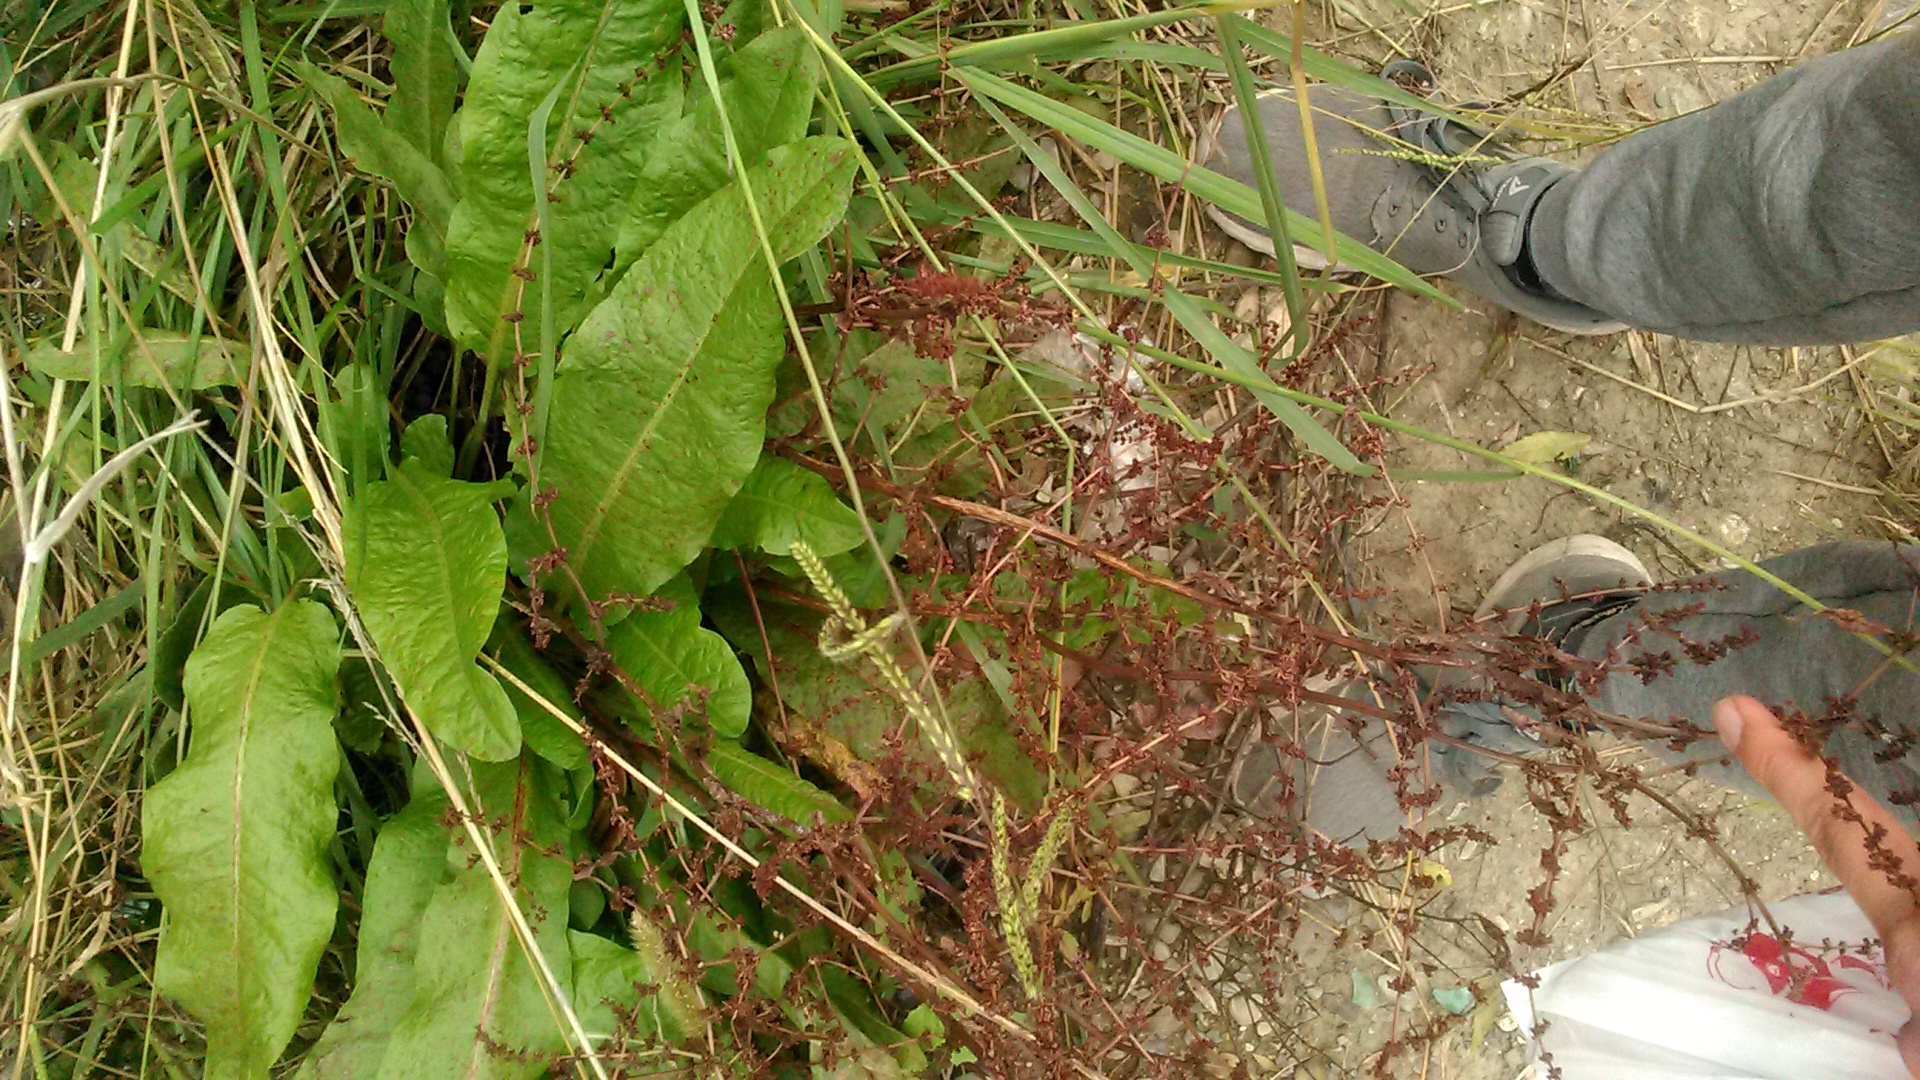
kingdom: Plantae
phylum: Tracheophyta
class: Magnoliopsida
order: Caryophyllales
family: Polygonaceae
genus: Rumex
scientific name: Rumex conglomeratus
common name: Clustered dock
